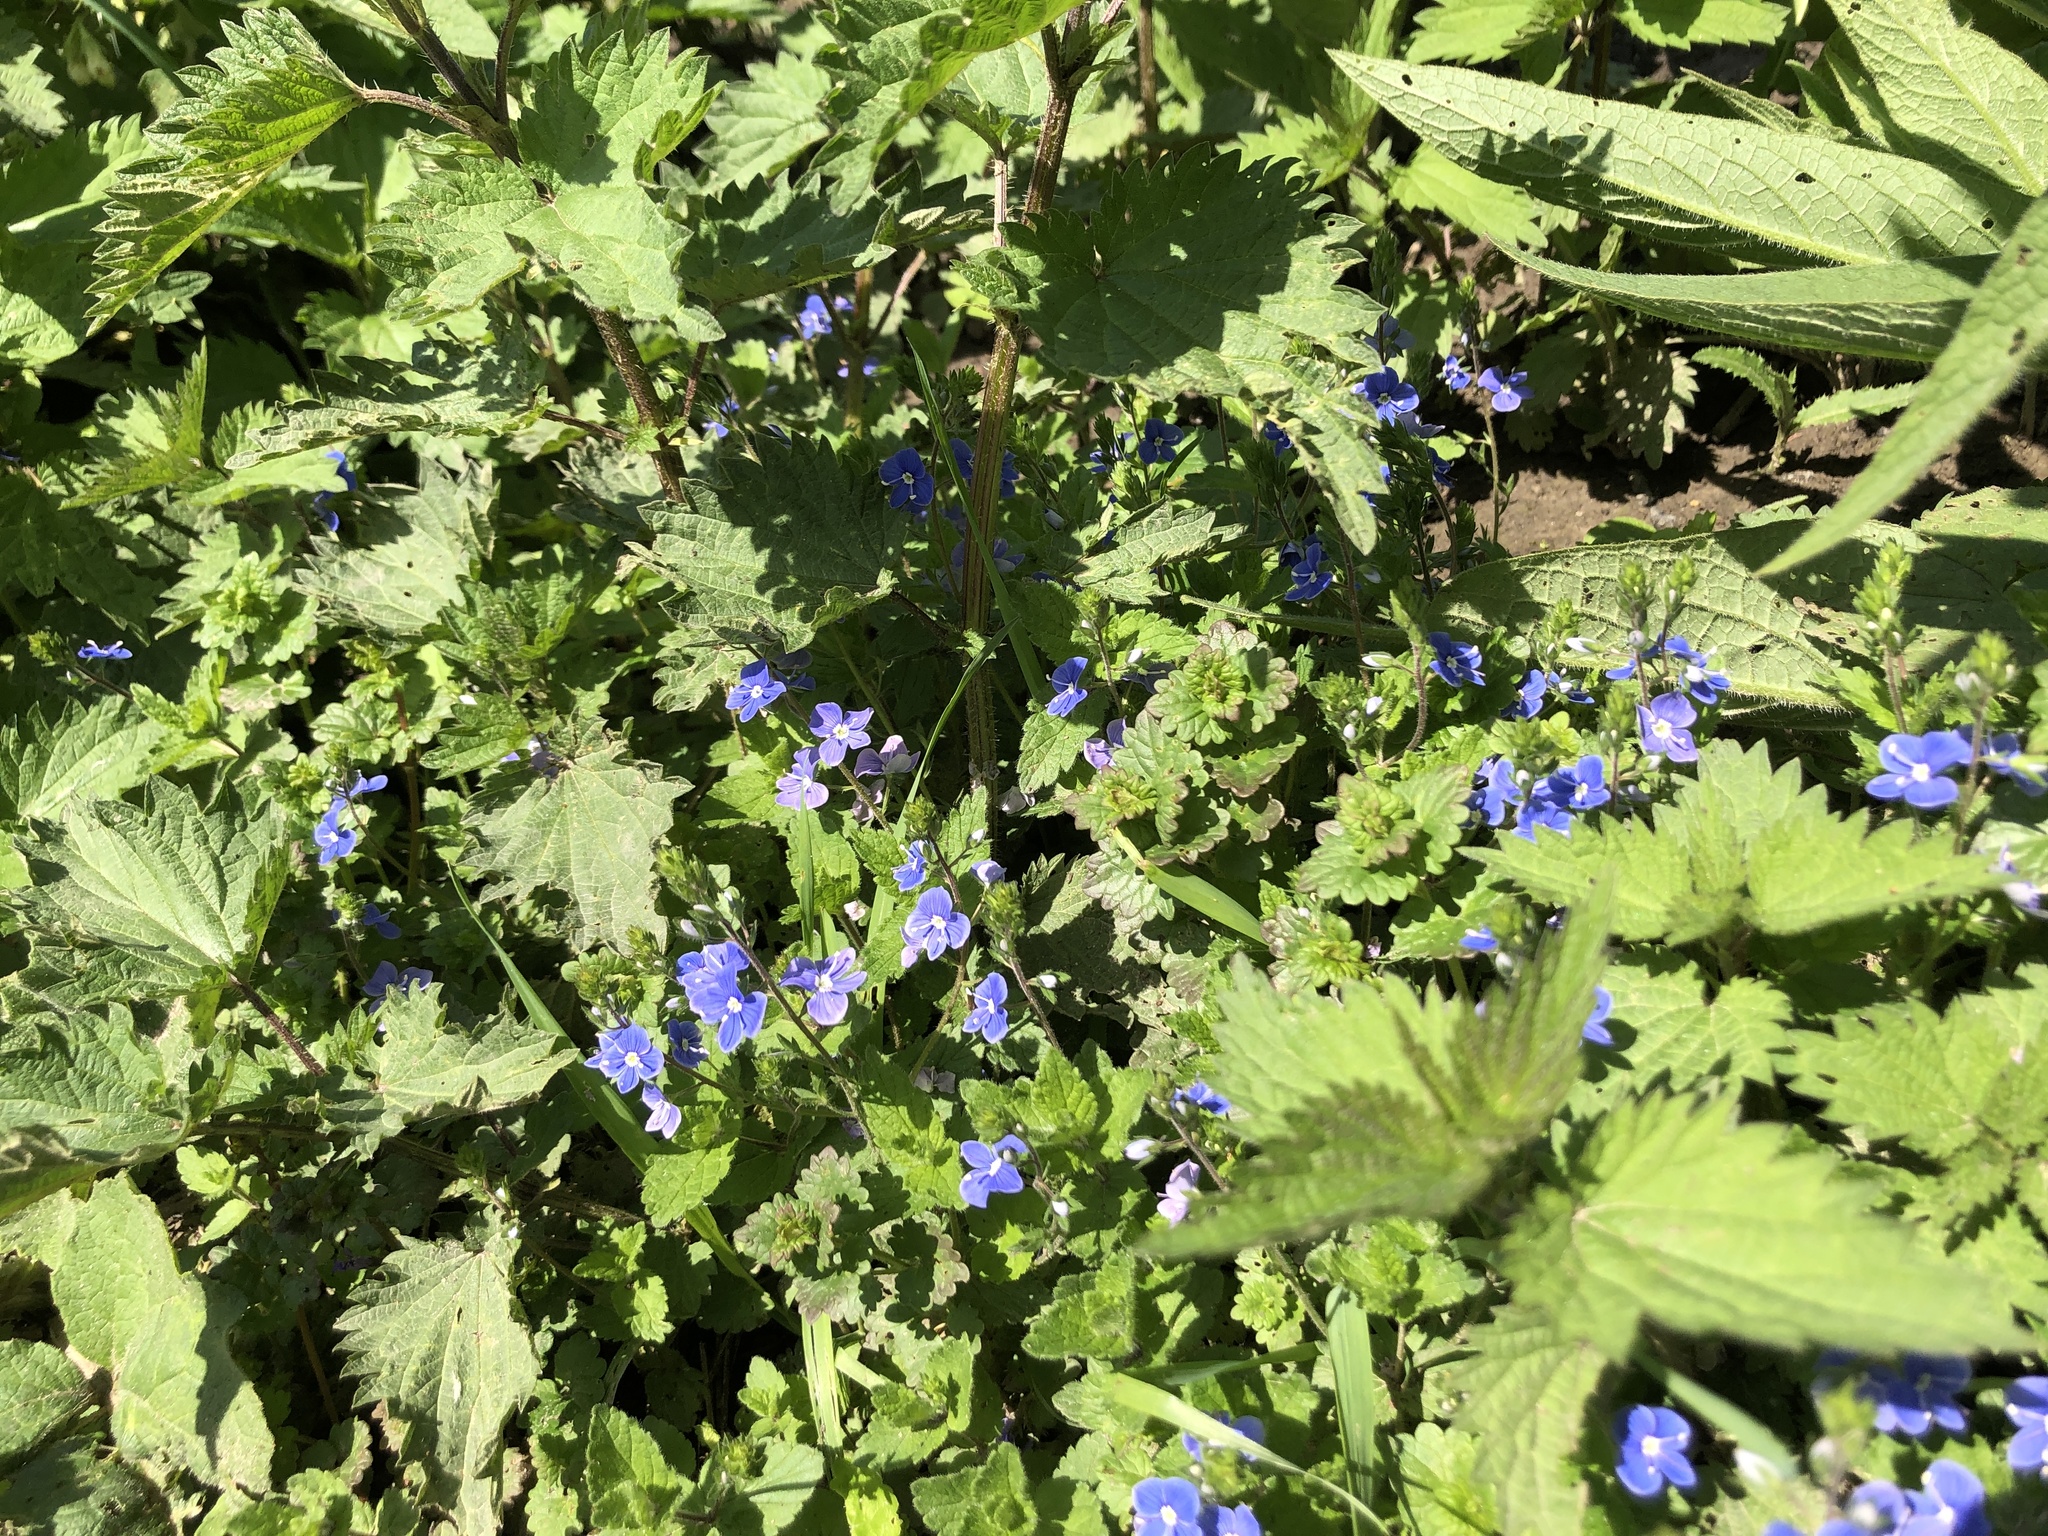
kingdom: Plantae
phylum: Tracheophyta
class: Magnoliopsida
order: Lamiales
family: Plantaginaceae
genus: Veronica
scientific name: Veronica chamaedrys
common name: Germander speedwell
